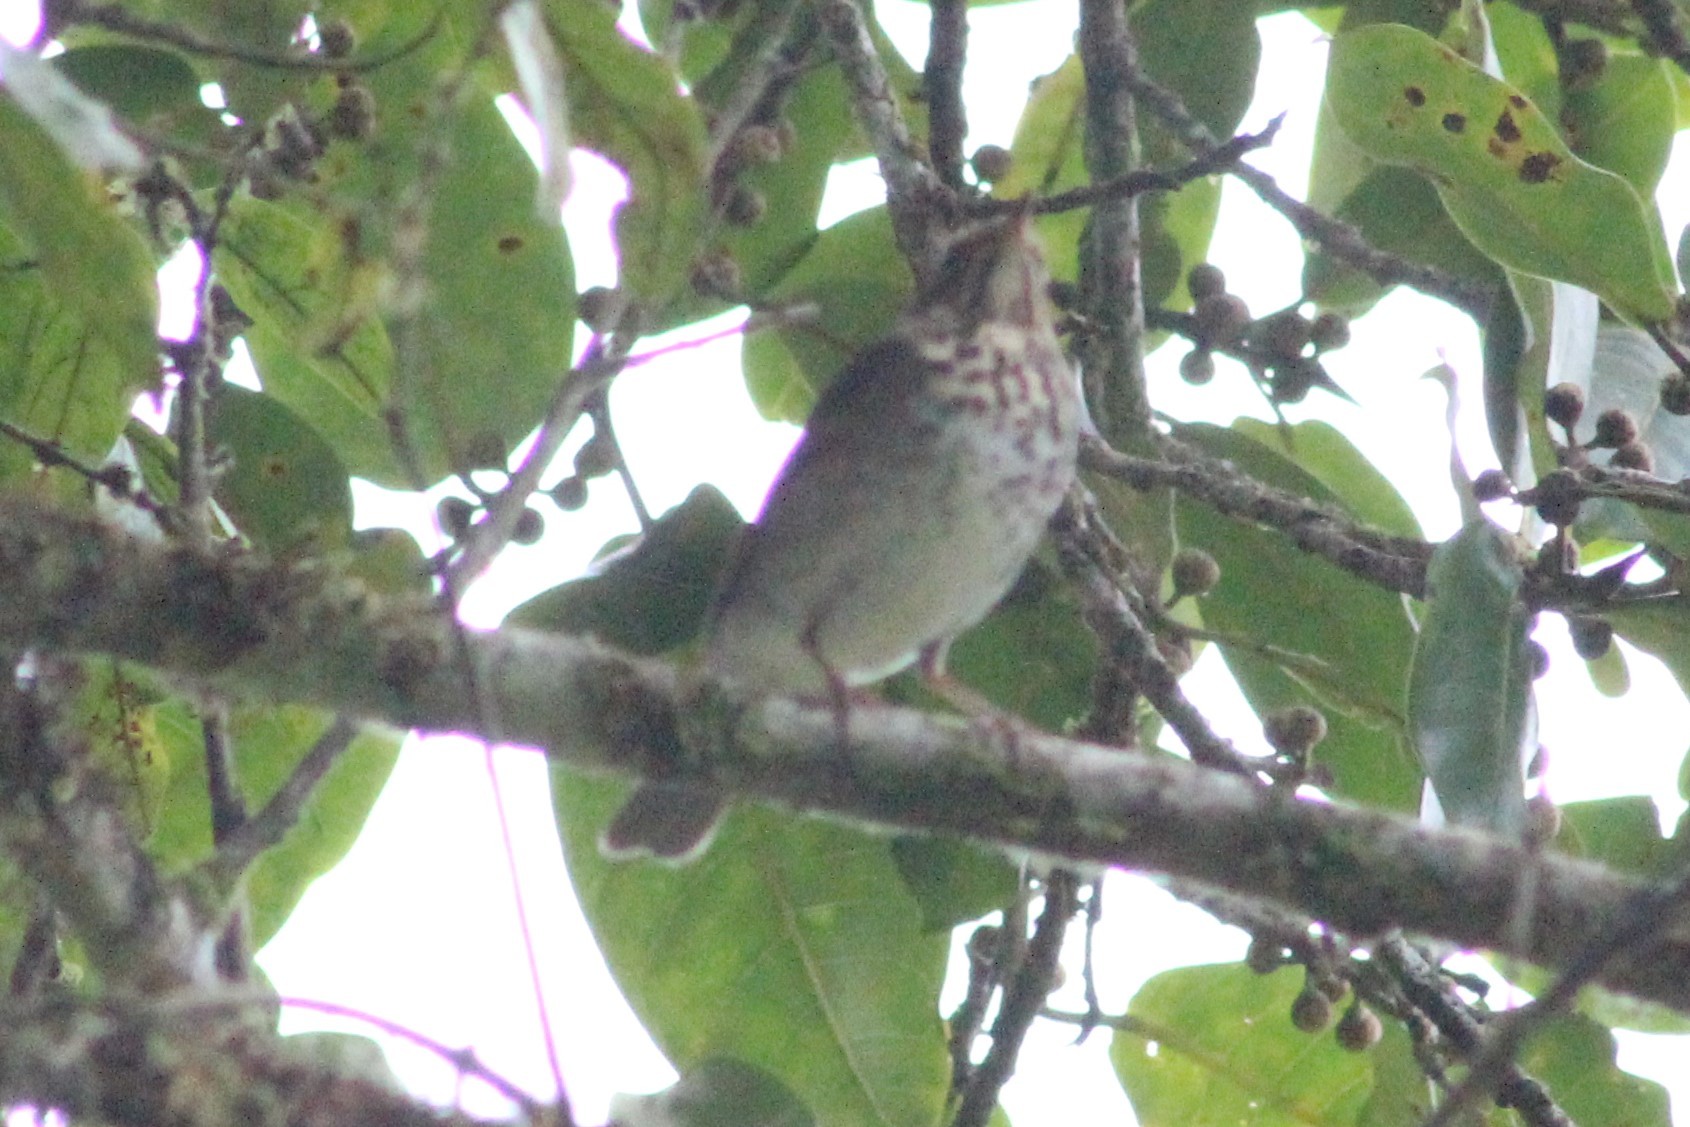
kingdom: Animalia
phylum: Chordata
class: Aves
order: Passeriformes
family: Turdidae
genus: Catharus
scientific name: Catharus ustulatus
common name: Swainson's thrush
